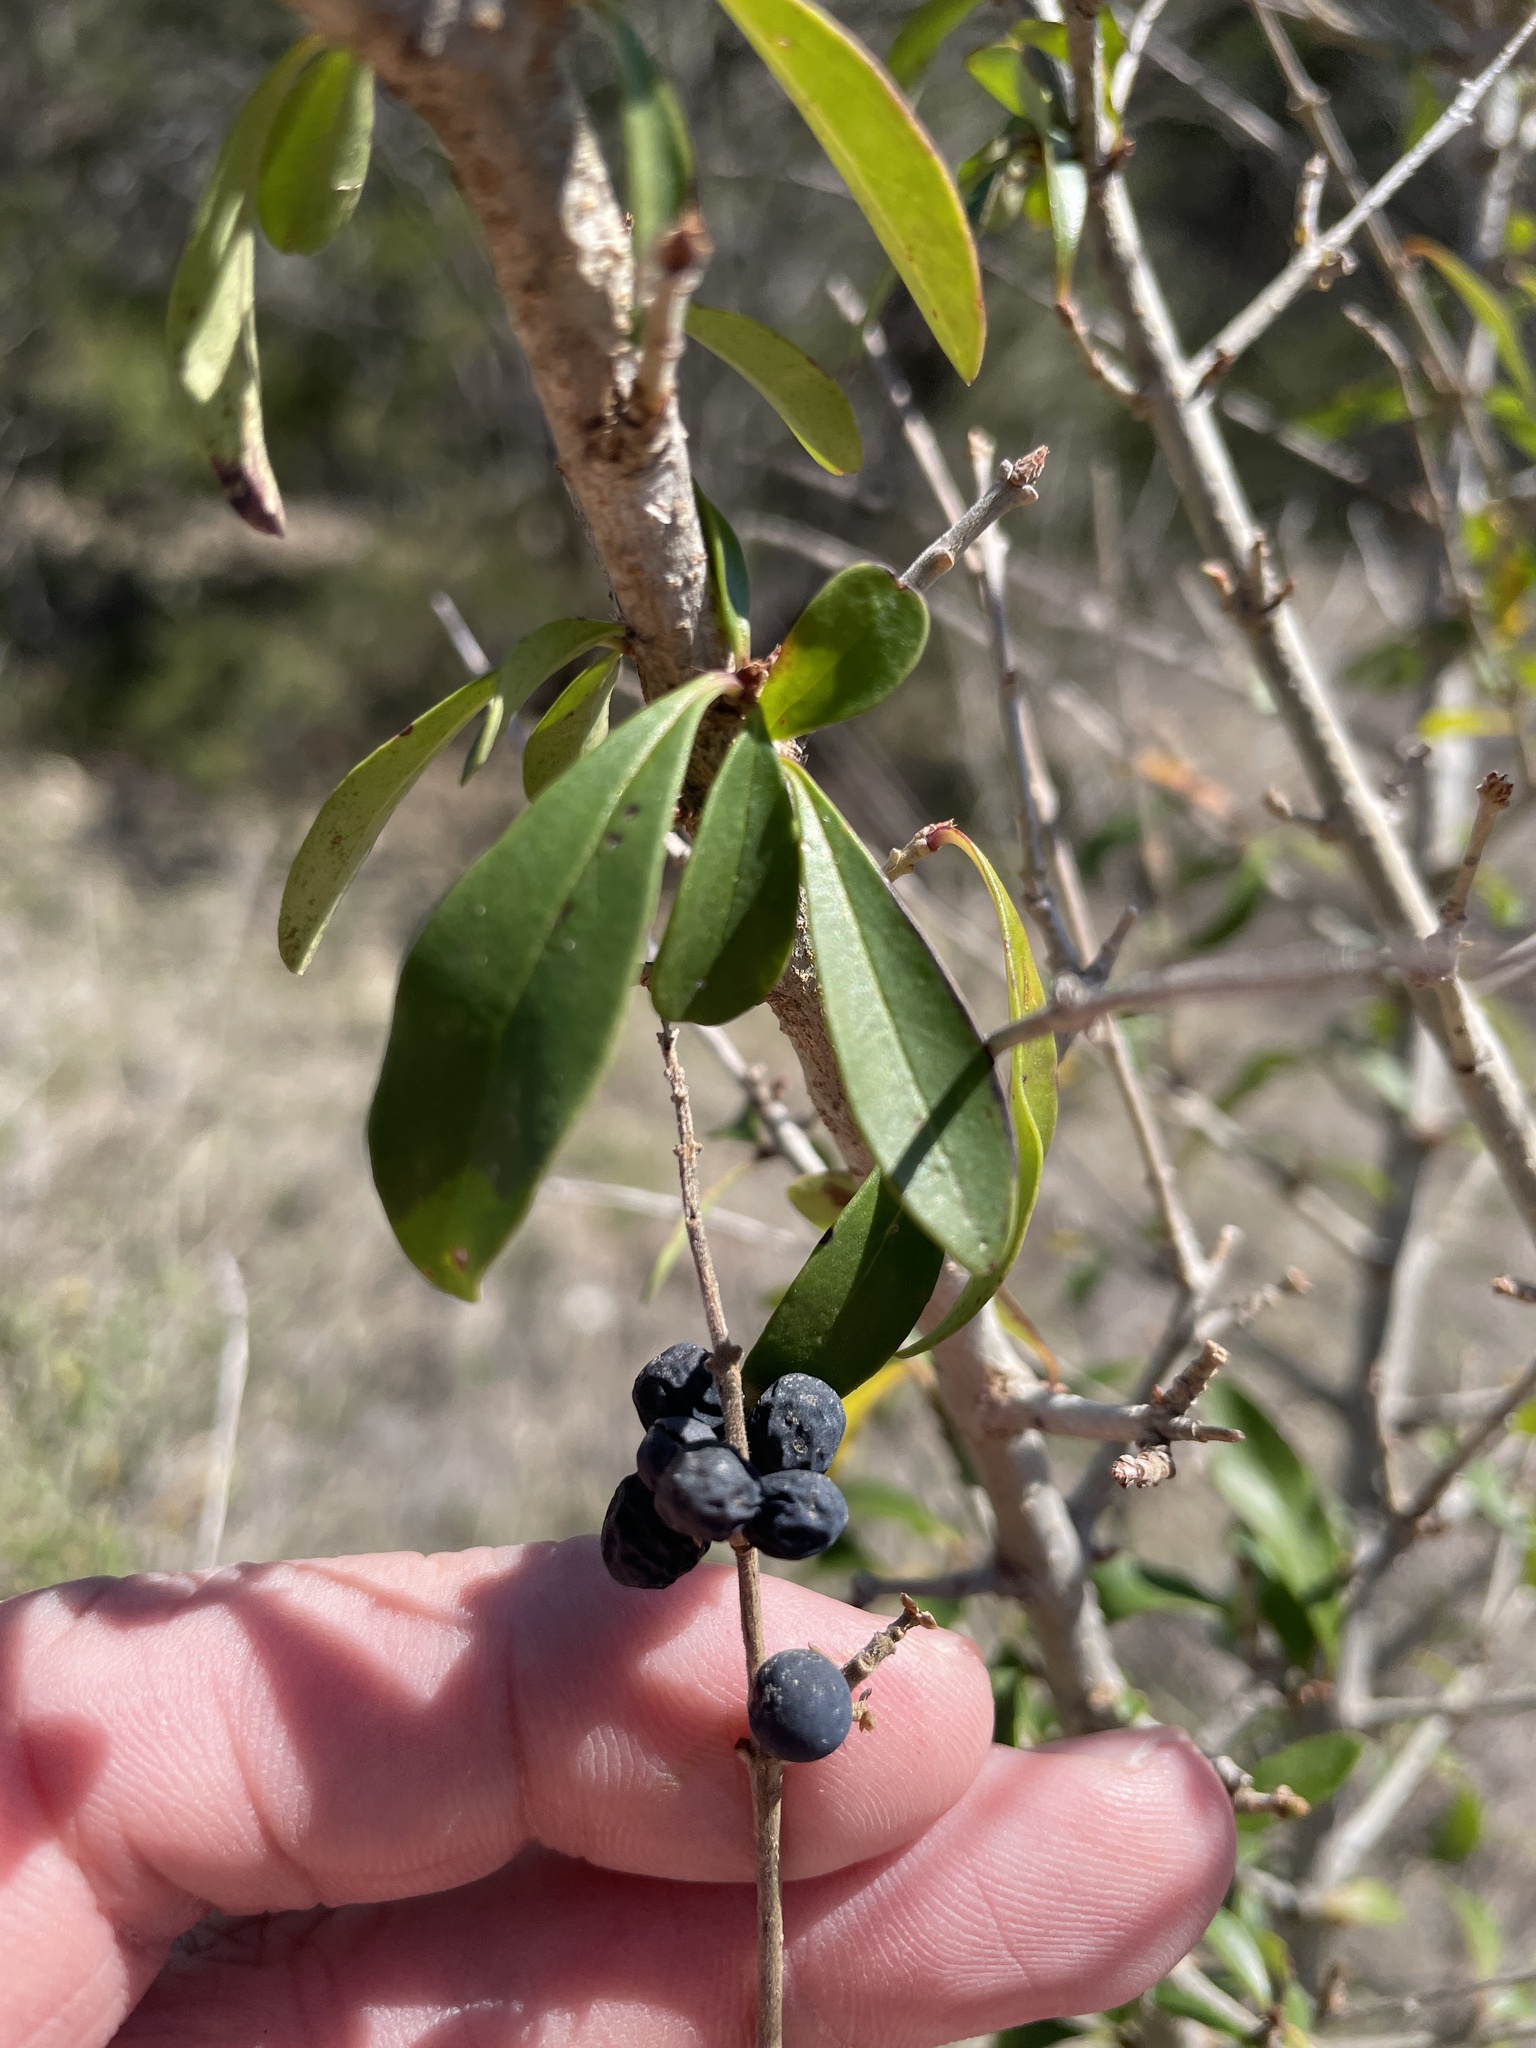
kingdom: Plantae
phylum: Tracheophyta
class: Magnoliopsida
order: Lamiales
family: Oleaceae
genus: Ligustrum
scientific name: Ligustrum quihoui
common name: Waxyleaf privet
